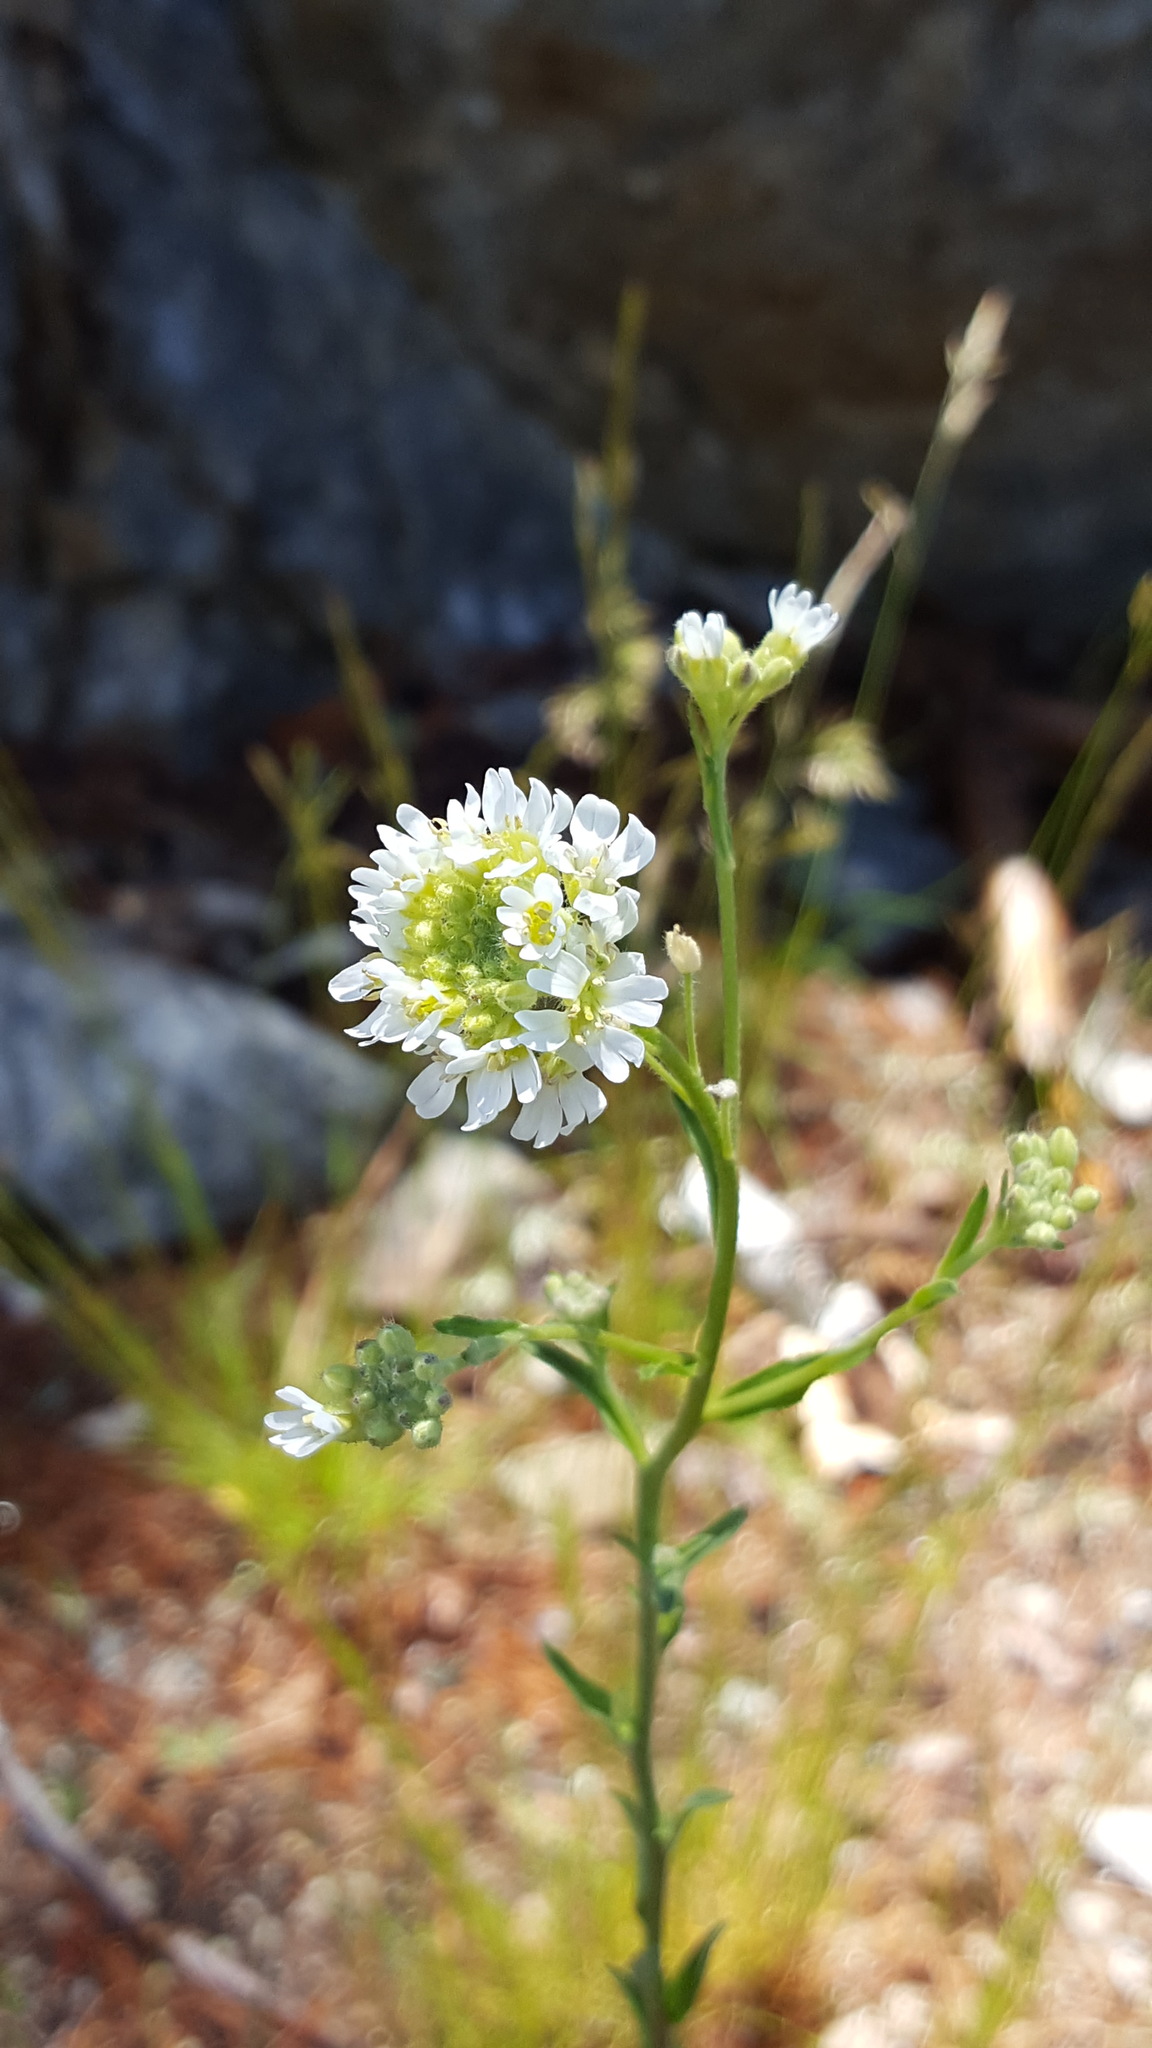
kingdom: Plantae
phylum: Tracheophyta
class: Magnoliopsida
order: Brassicales
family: Brassicaceae
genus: Berteroa
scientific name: Berteroa incana
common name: Hoary alison
